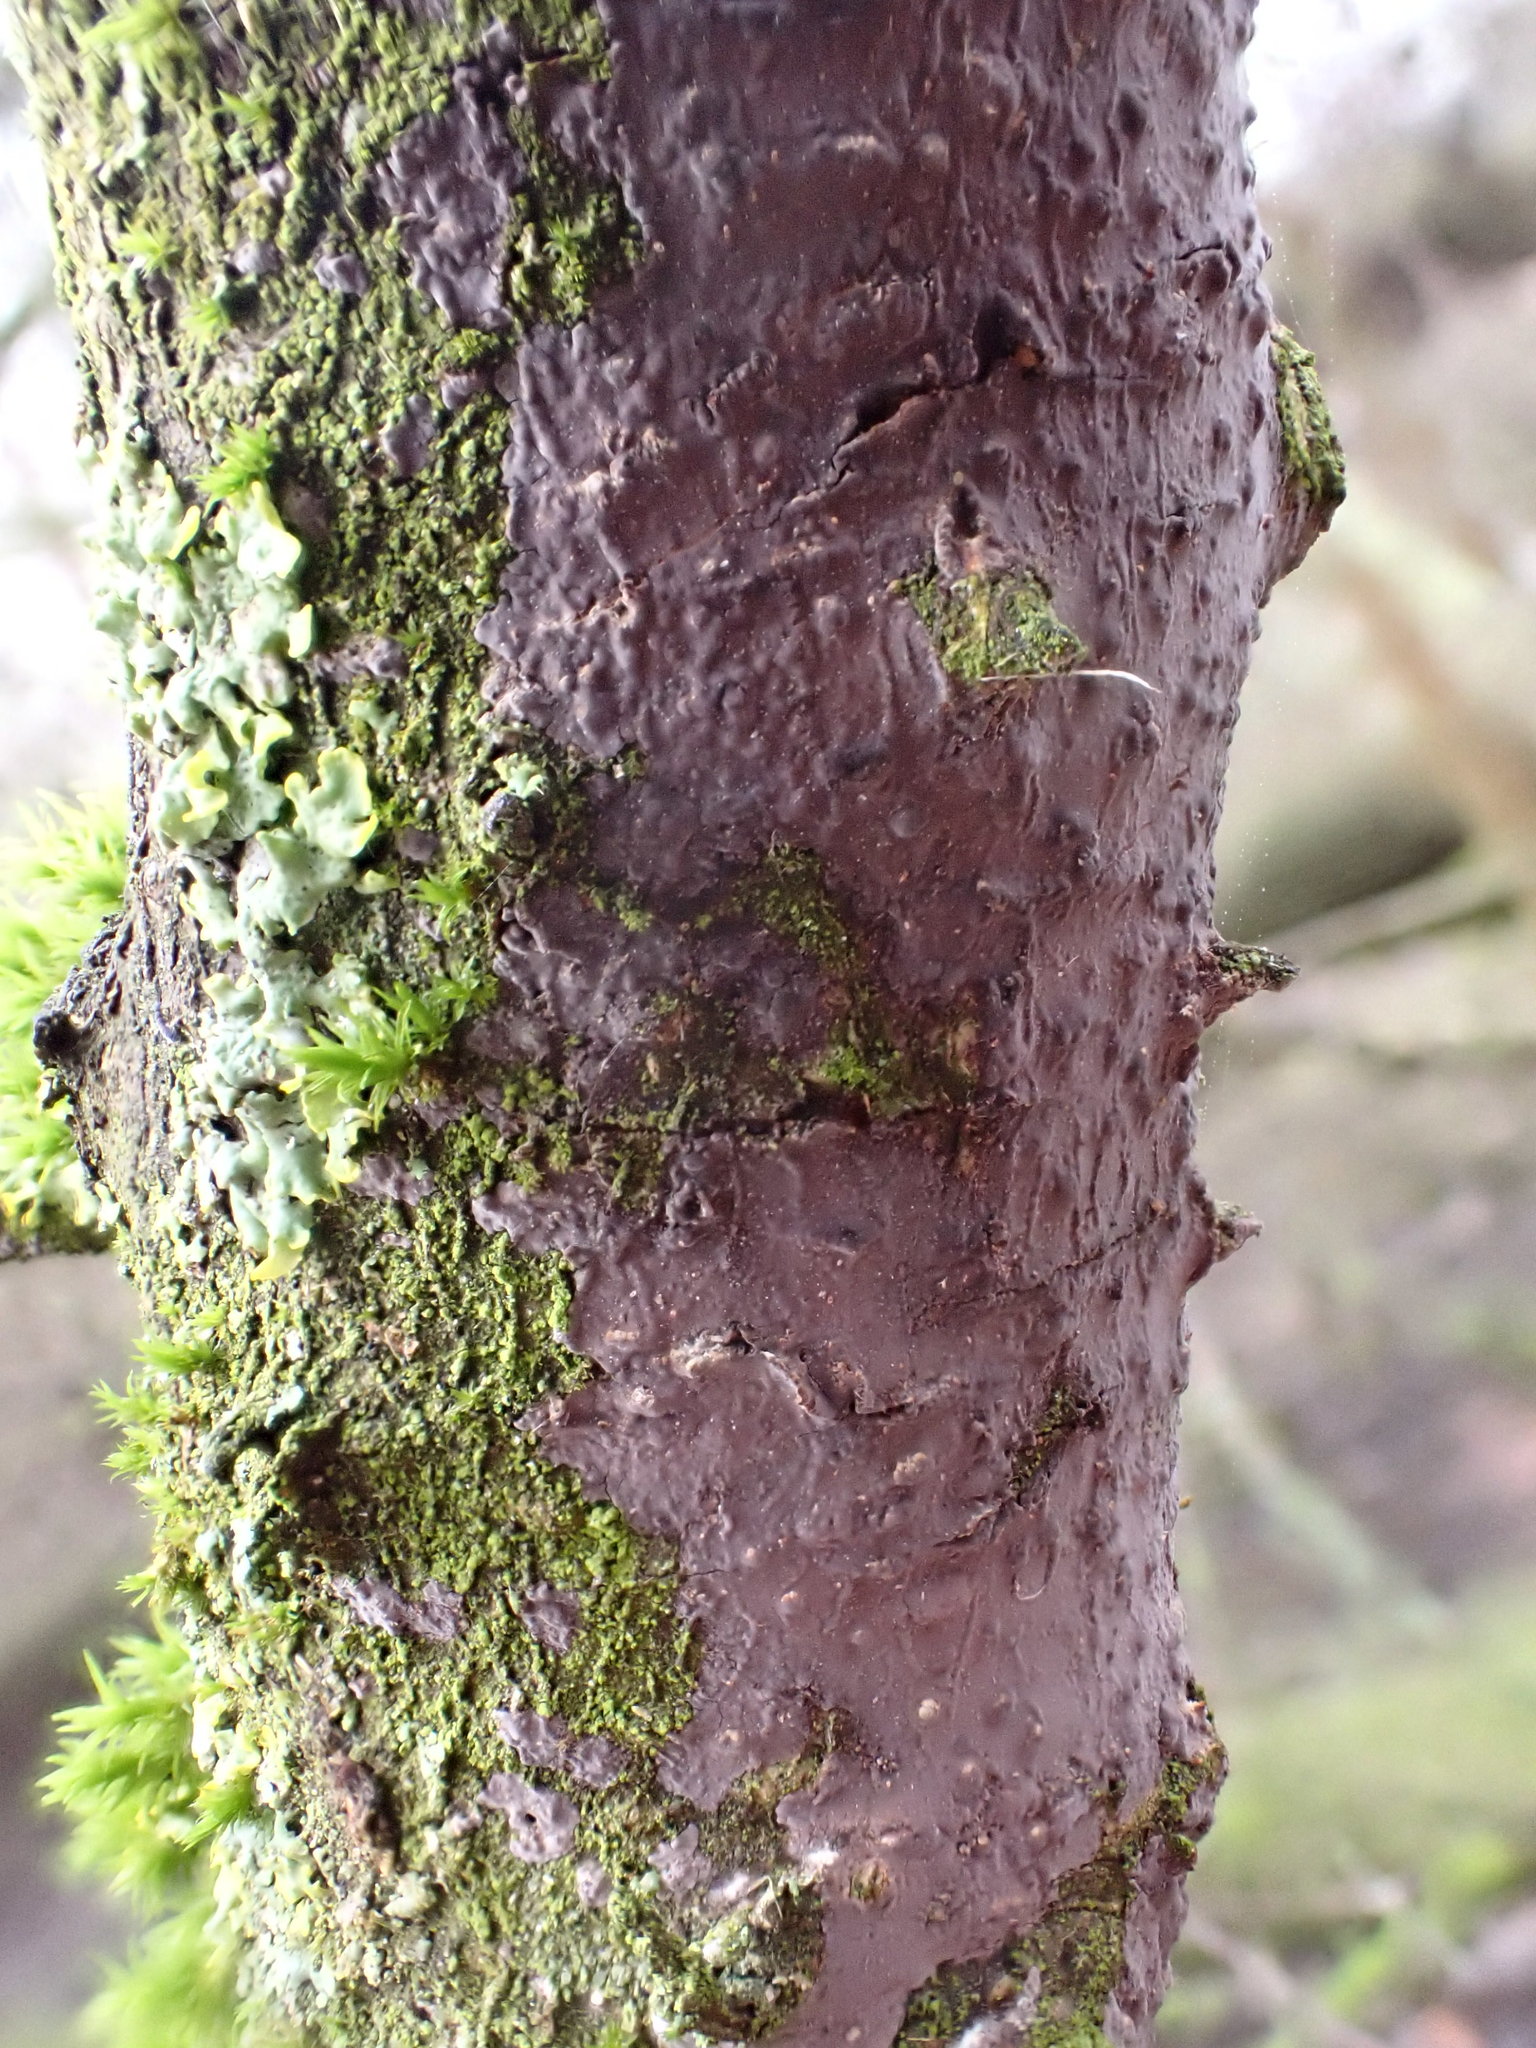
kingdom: Fungi
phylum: Basidiomycota
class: Agaricomycetes
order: Russulales
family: Peniophoraceae
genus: Peniophora
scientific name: Peniophora quercina
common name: Oak crust
